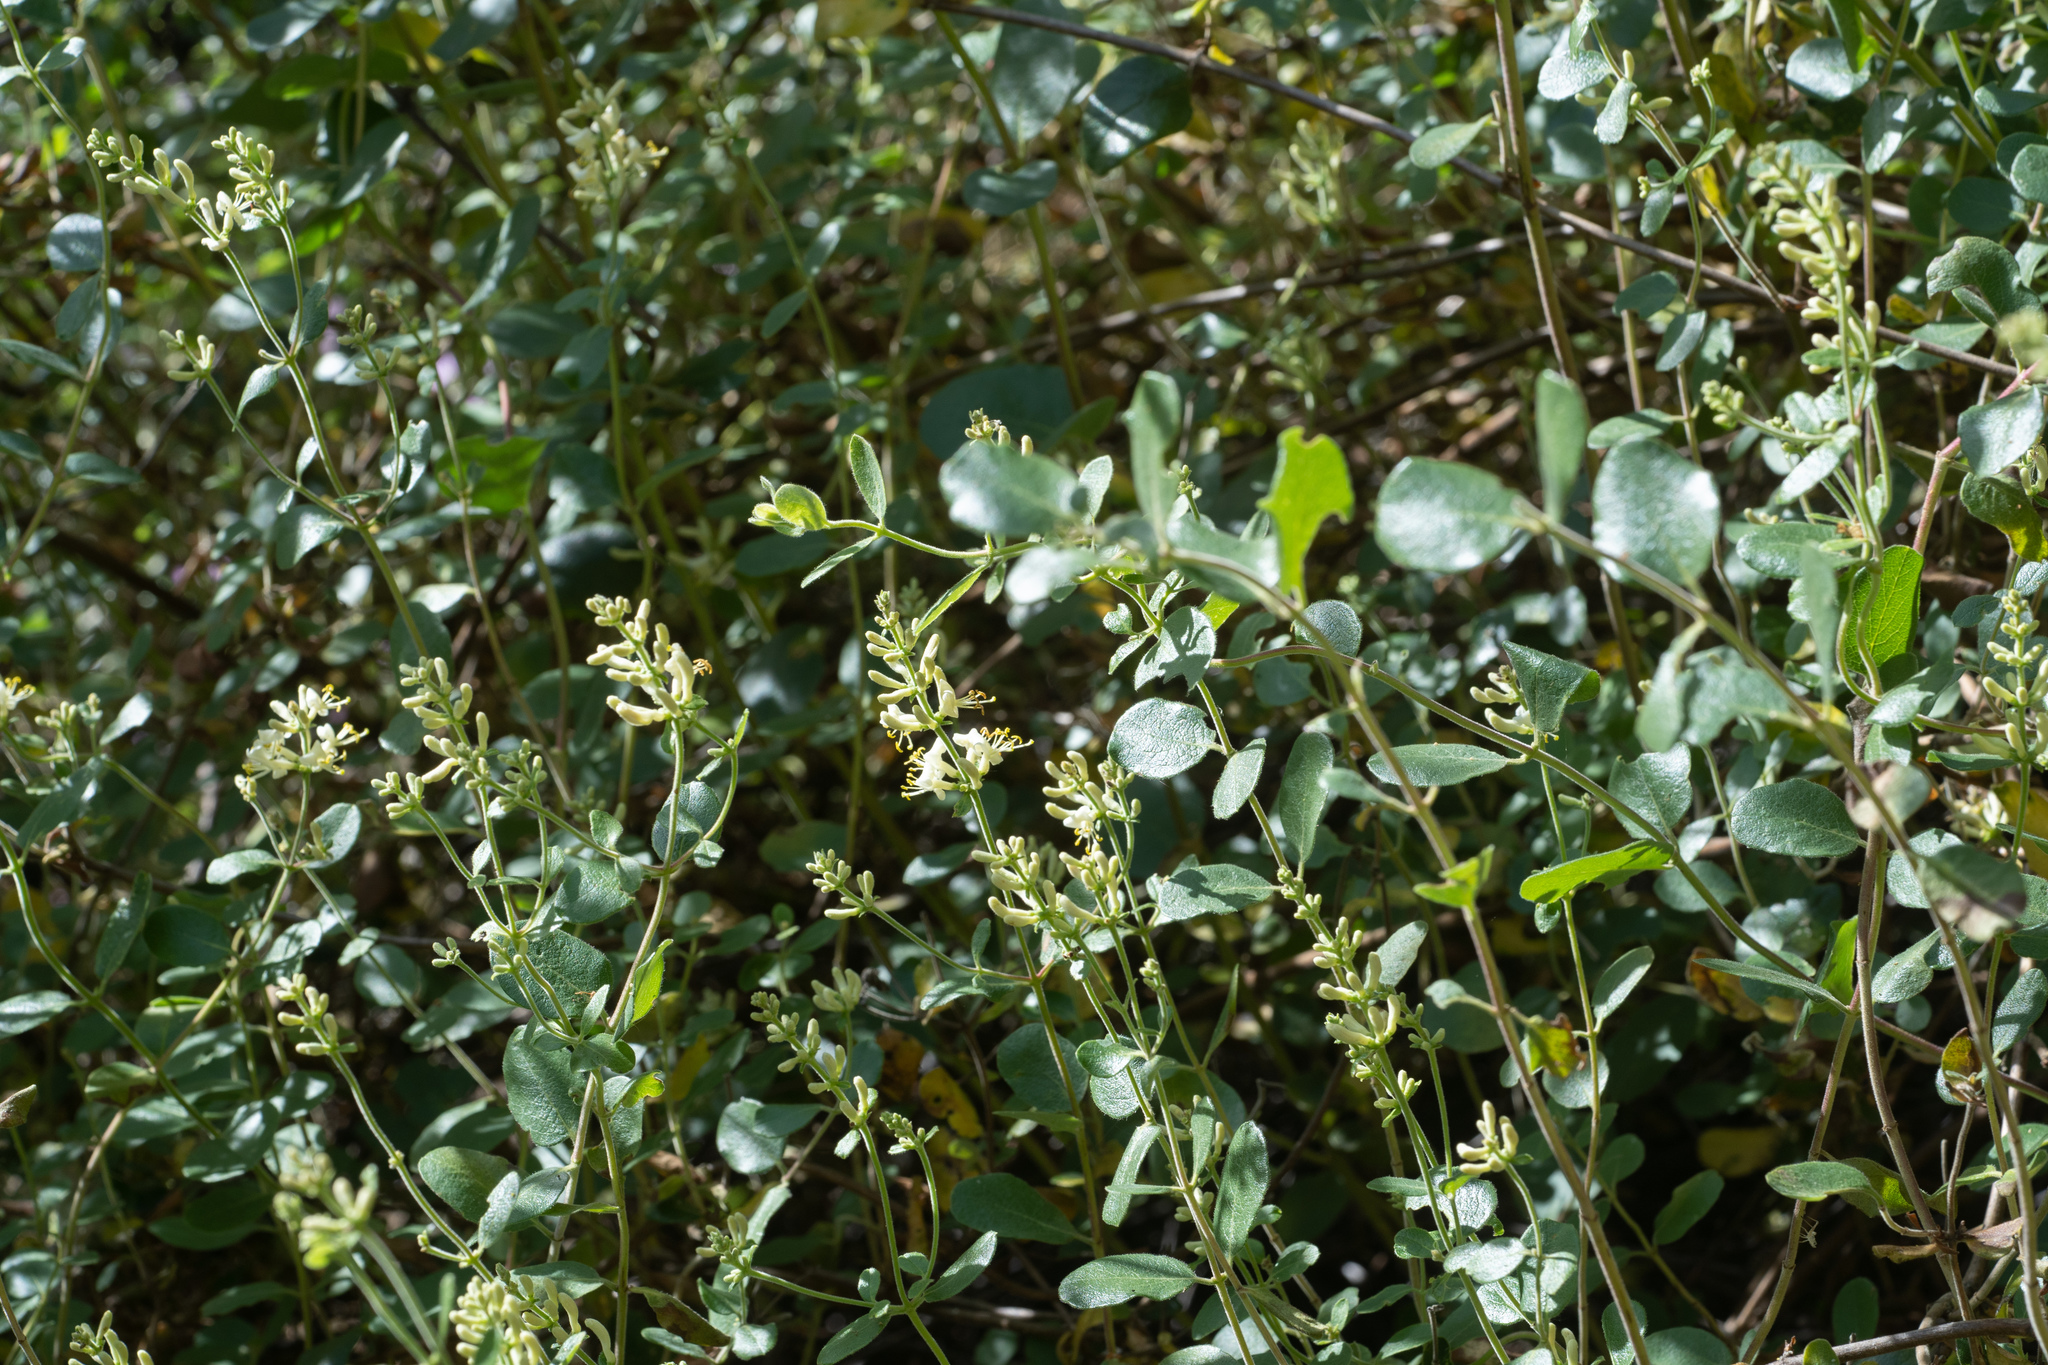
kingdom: Plantae
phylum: Tracheophyta
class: Magnoliopsida
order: Dipsacales
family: Caprifoliaceae
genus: Lonicera
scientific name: Lonicera subspicata
